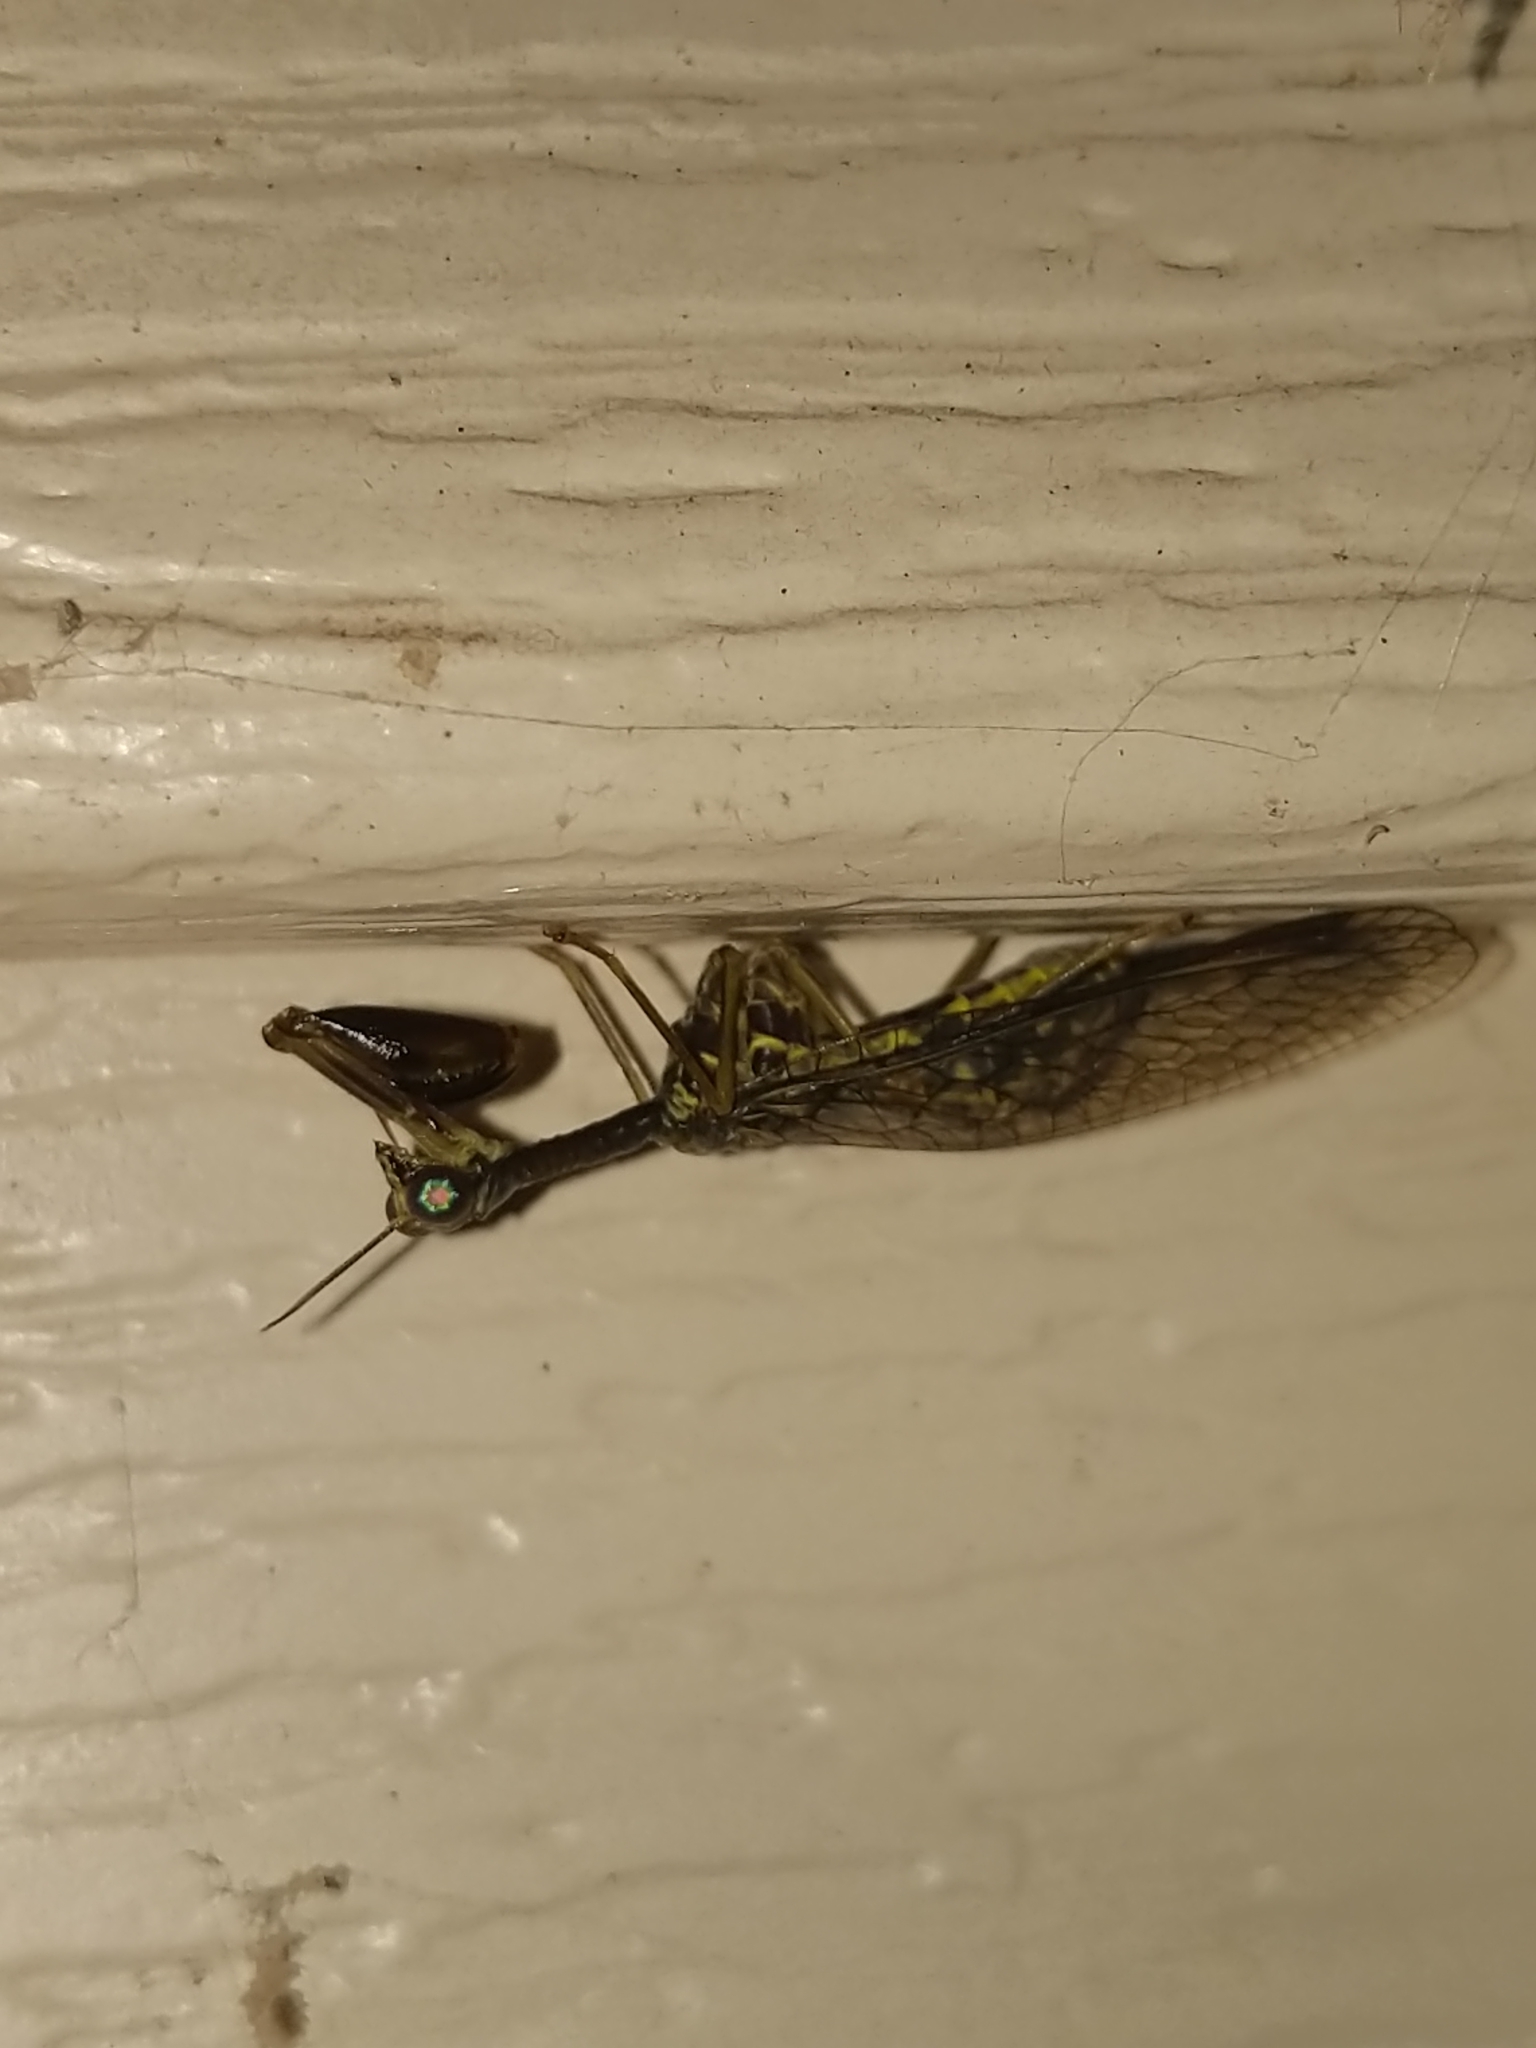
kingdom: Animalia
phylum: Arthropoda
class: Insecta
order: Neuroptera
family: Mantispidae
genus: Dicromantispa
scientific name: Dicromantispa sayi
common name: Say's mantidfly
